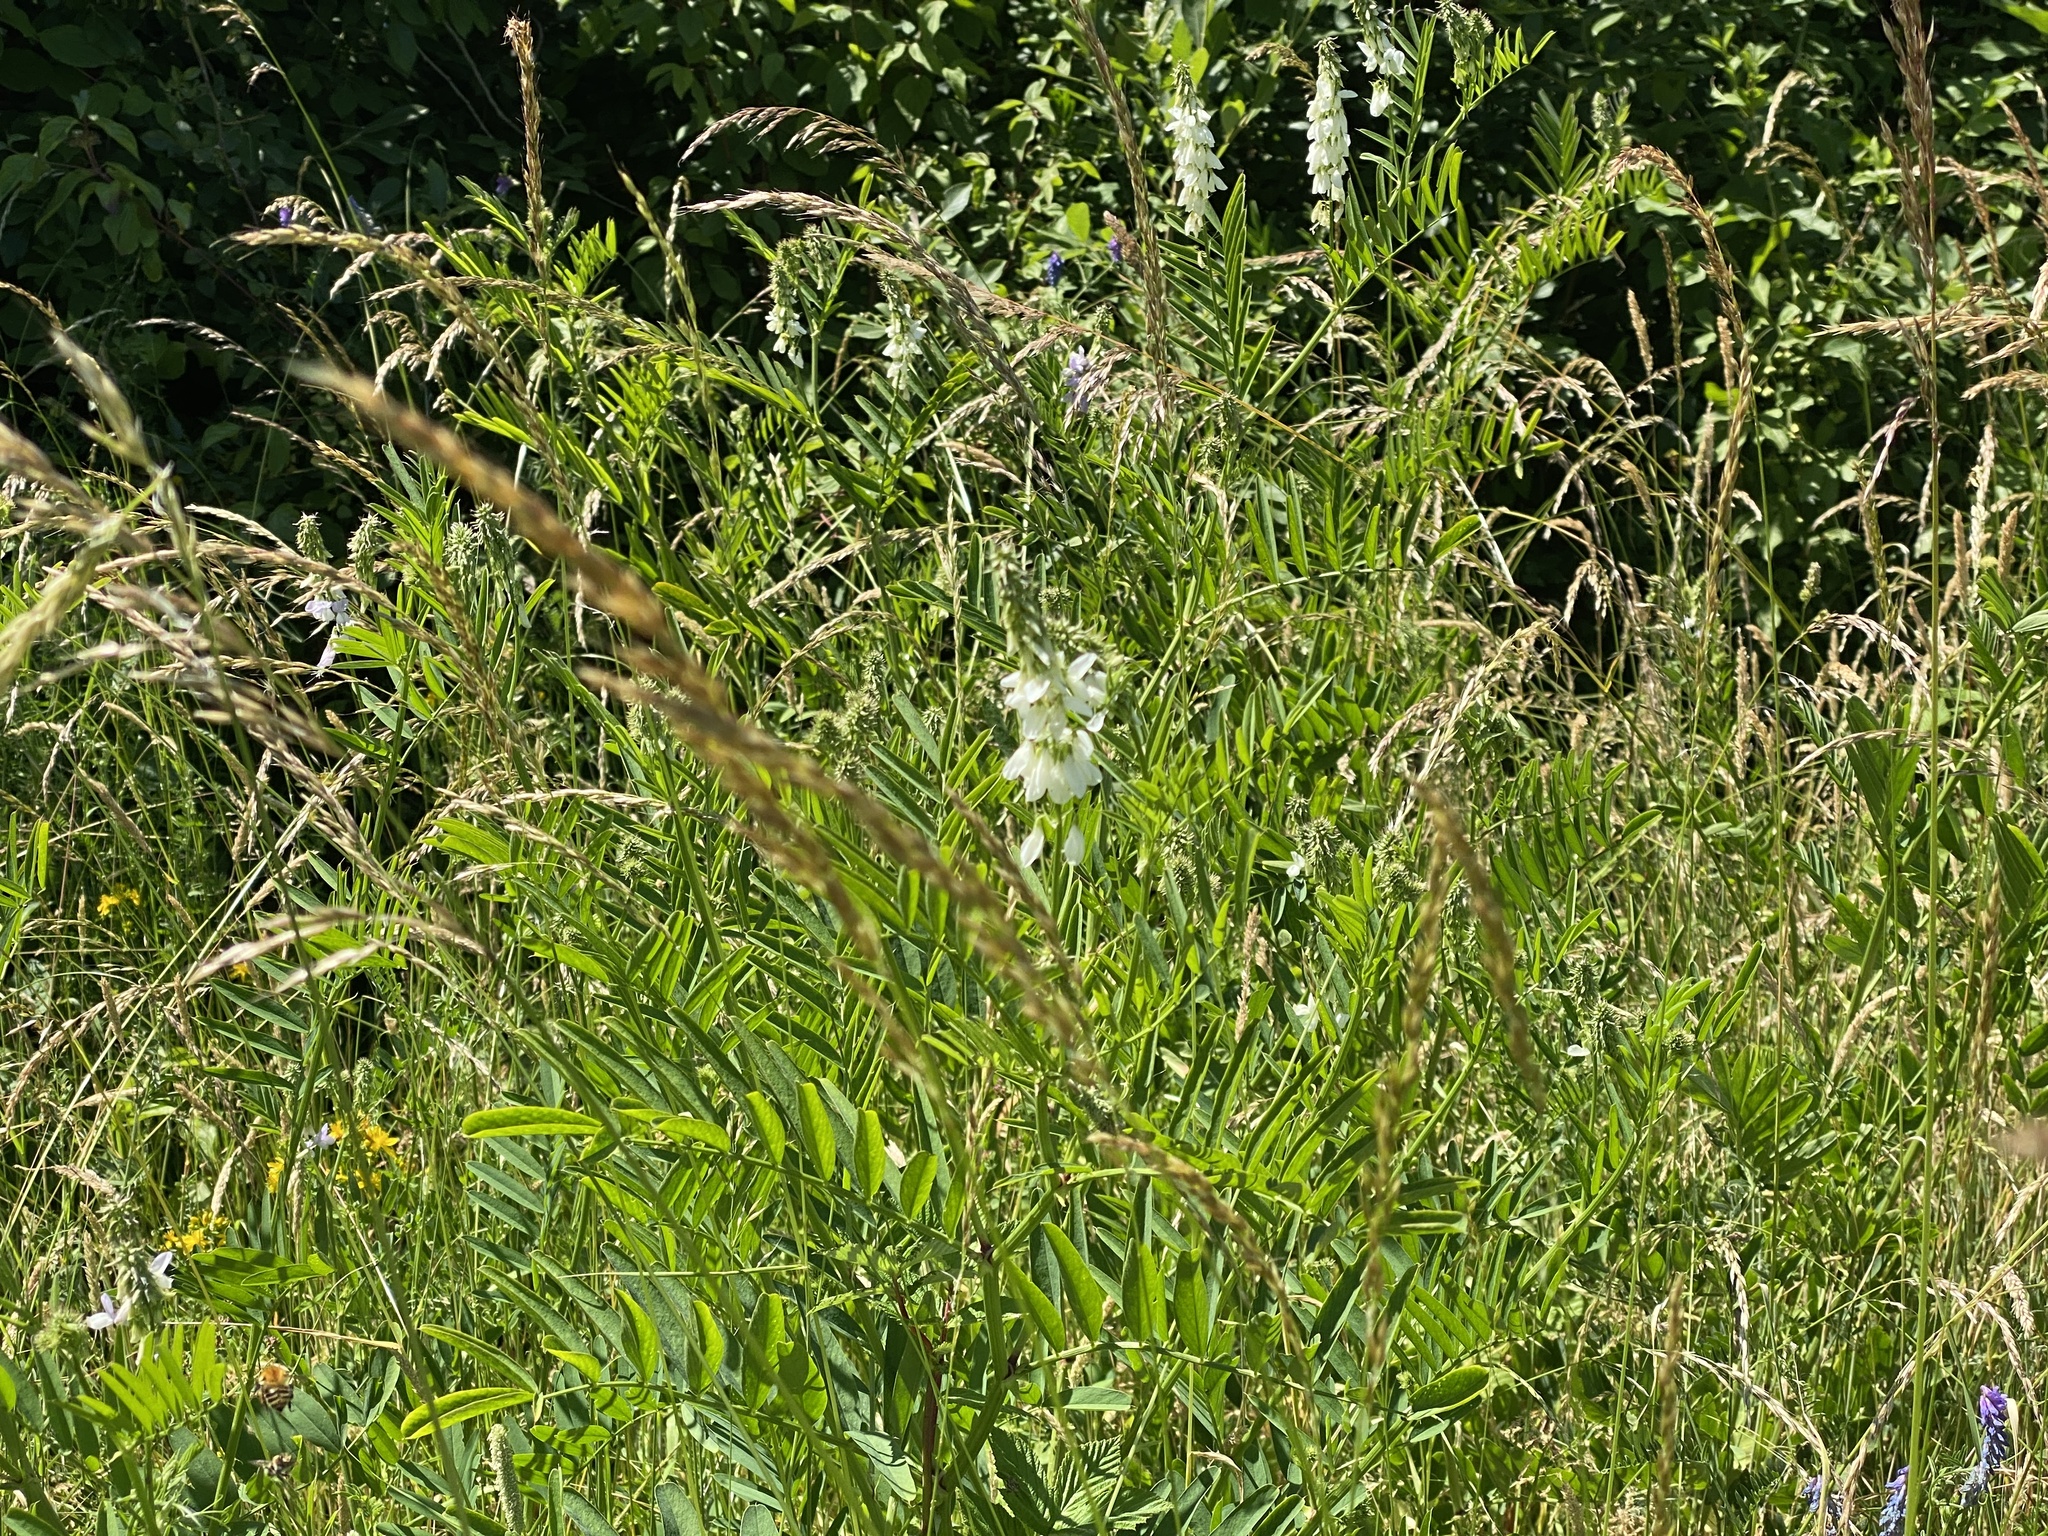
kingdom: Plantae
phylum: Tracheophyta
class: Magnoliopsida
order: Fabales
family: Fabaceae
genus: Galega
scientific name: Galega officinalis
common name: Goat's-rue
